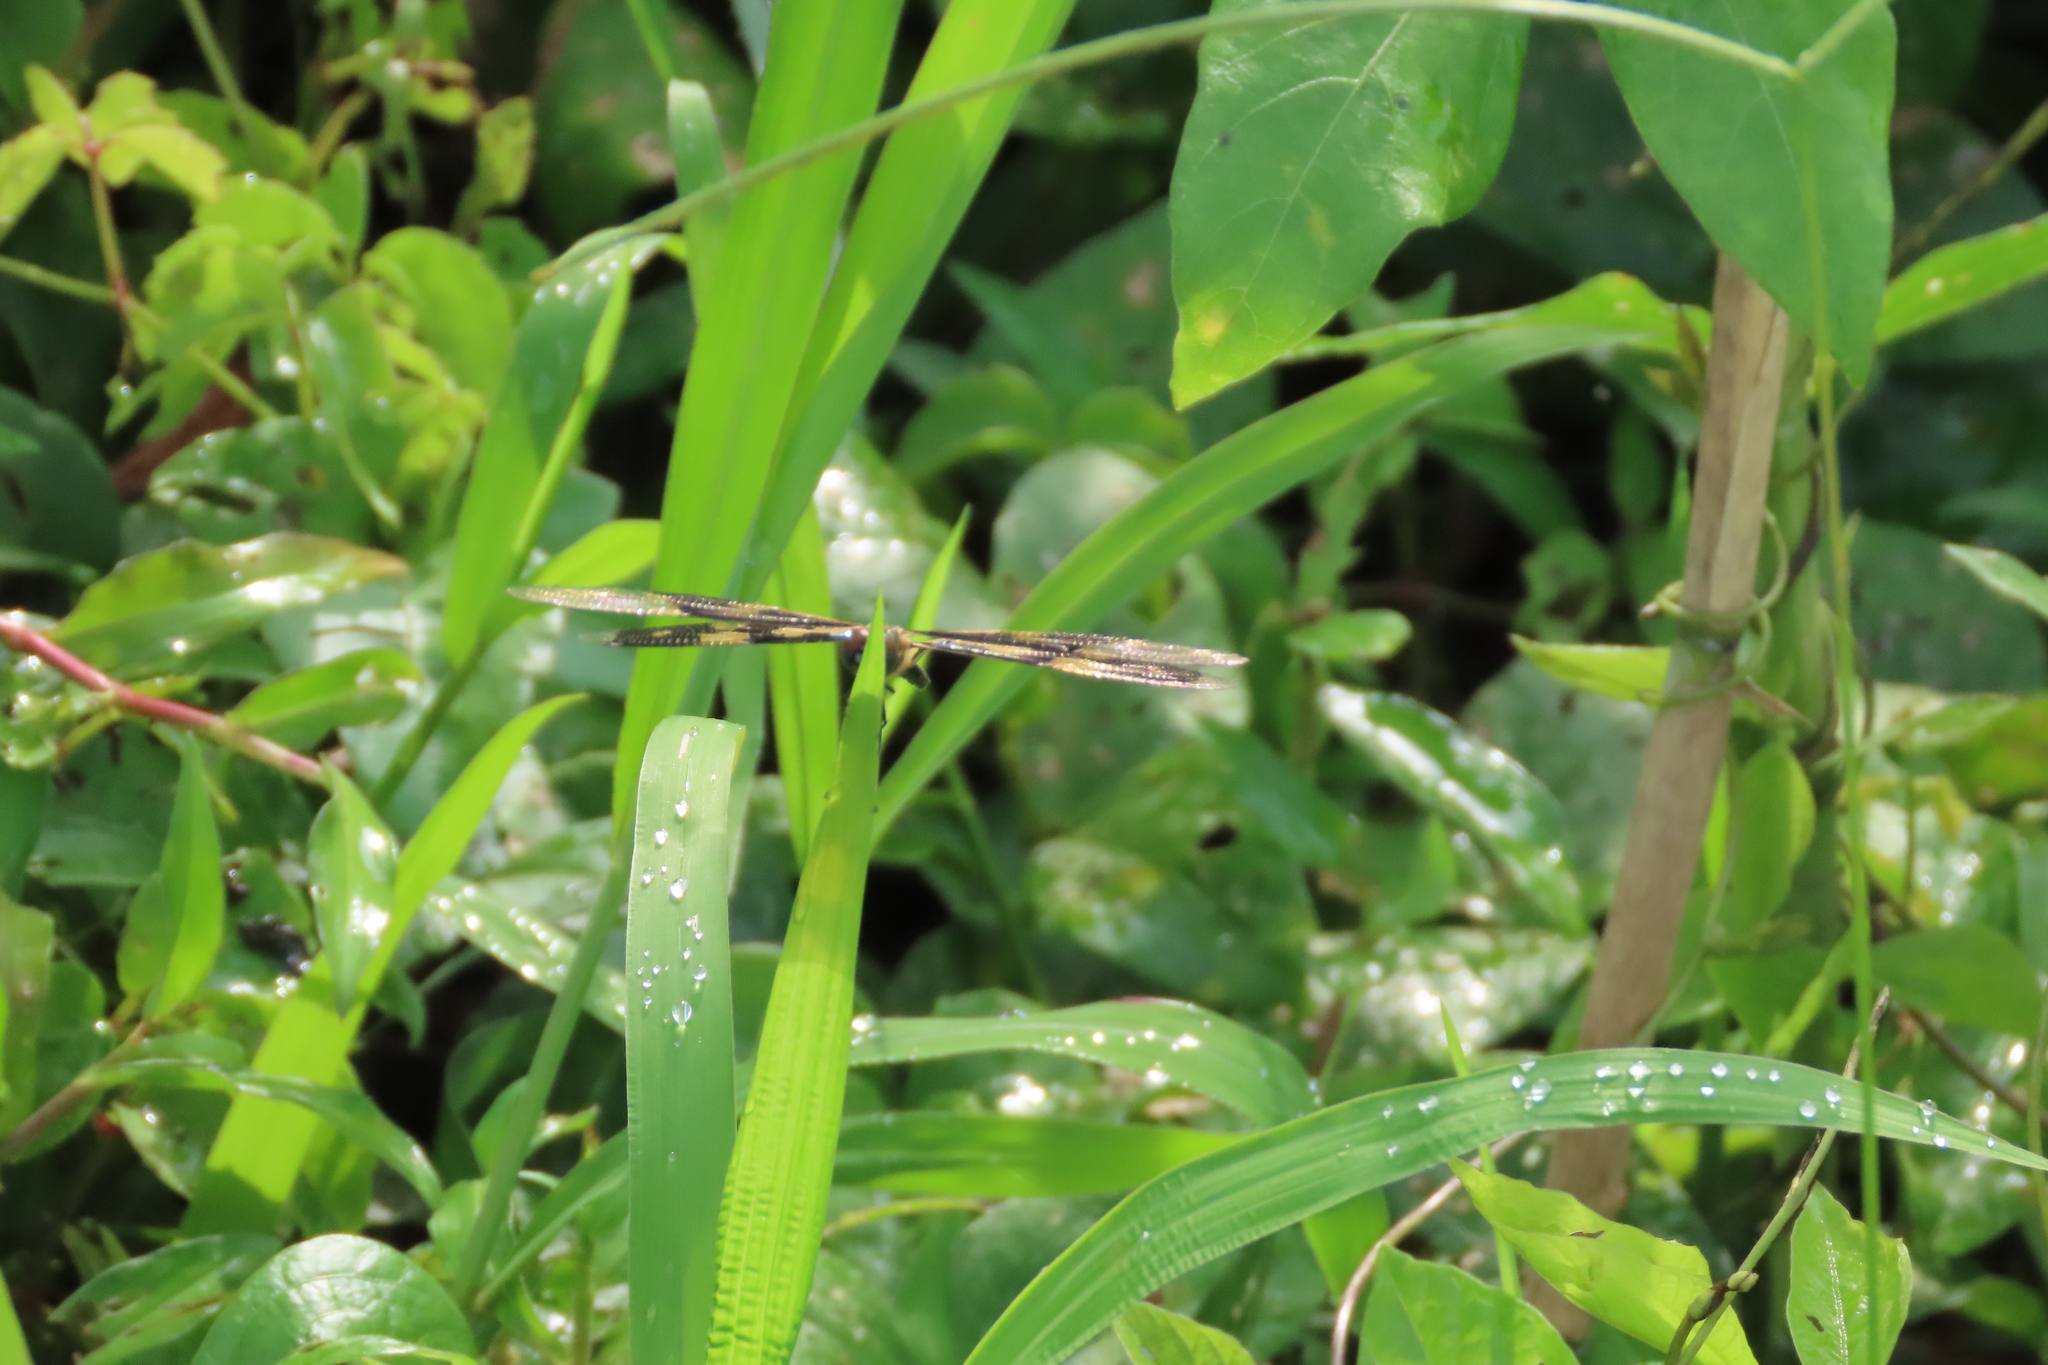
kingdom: Animalia
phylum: Arthropoda
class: Insecta
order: Odonata
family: Libellulidae
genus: Rhyothemis
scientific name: Rhyothemis variegata
